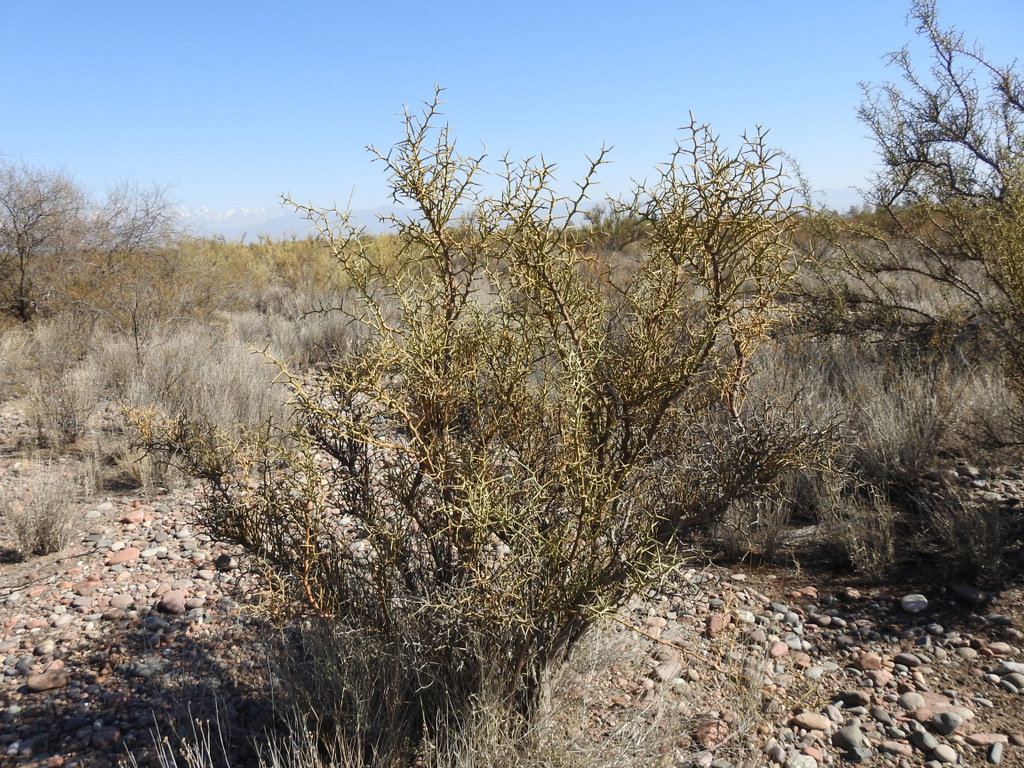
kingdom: Plantae
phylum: Tracheophyta
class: Magnoliopsida
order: Fabales
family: Polygalaceae
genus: Bredemeyera
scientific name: Bredemeyera colletioides
